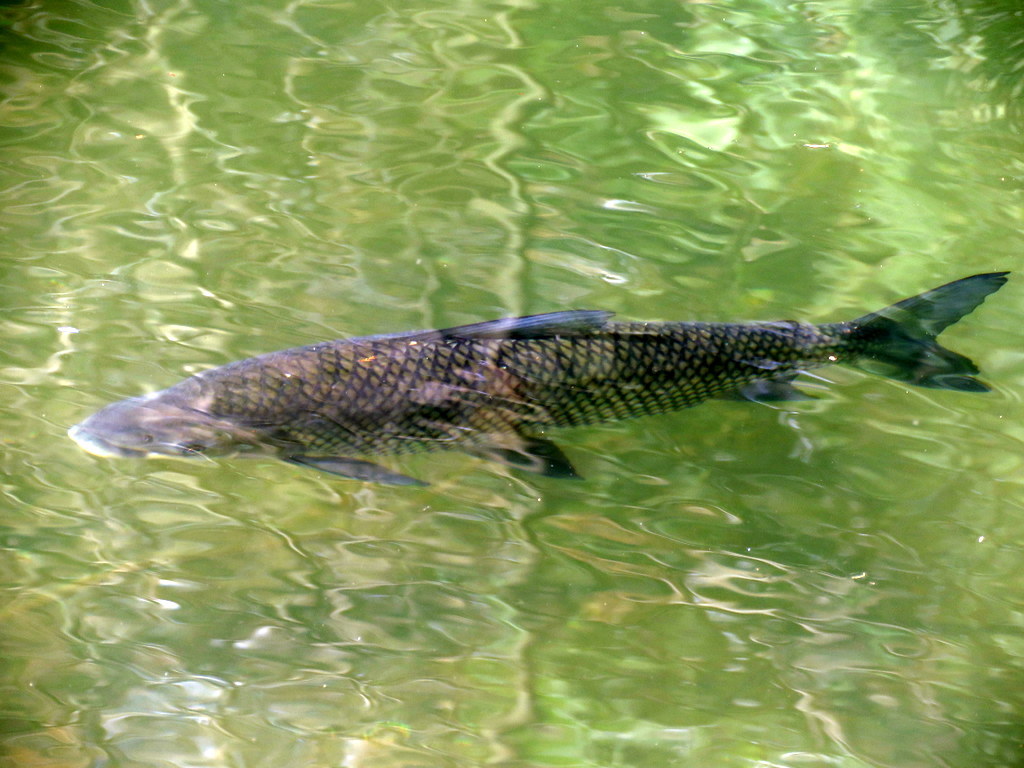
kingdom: Animalia
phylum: Chordata
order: Characiformes
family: Prochilodontidae
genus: Prochilodus
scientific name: Prochilodus lineatus
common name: Curimbata
